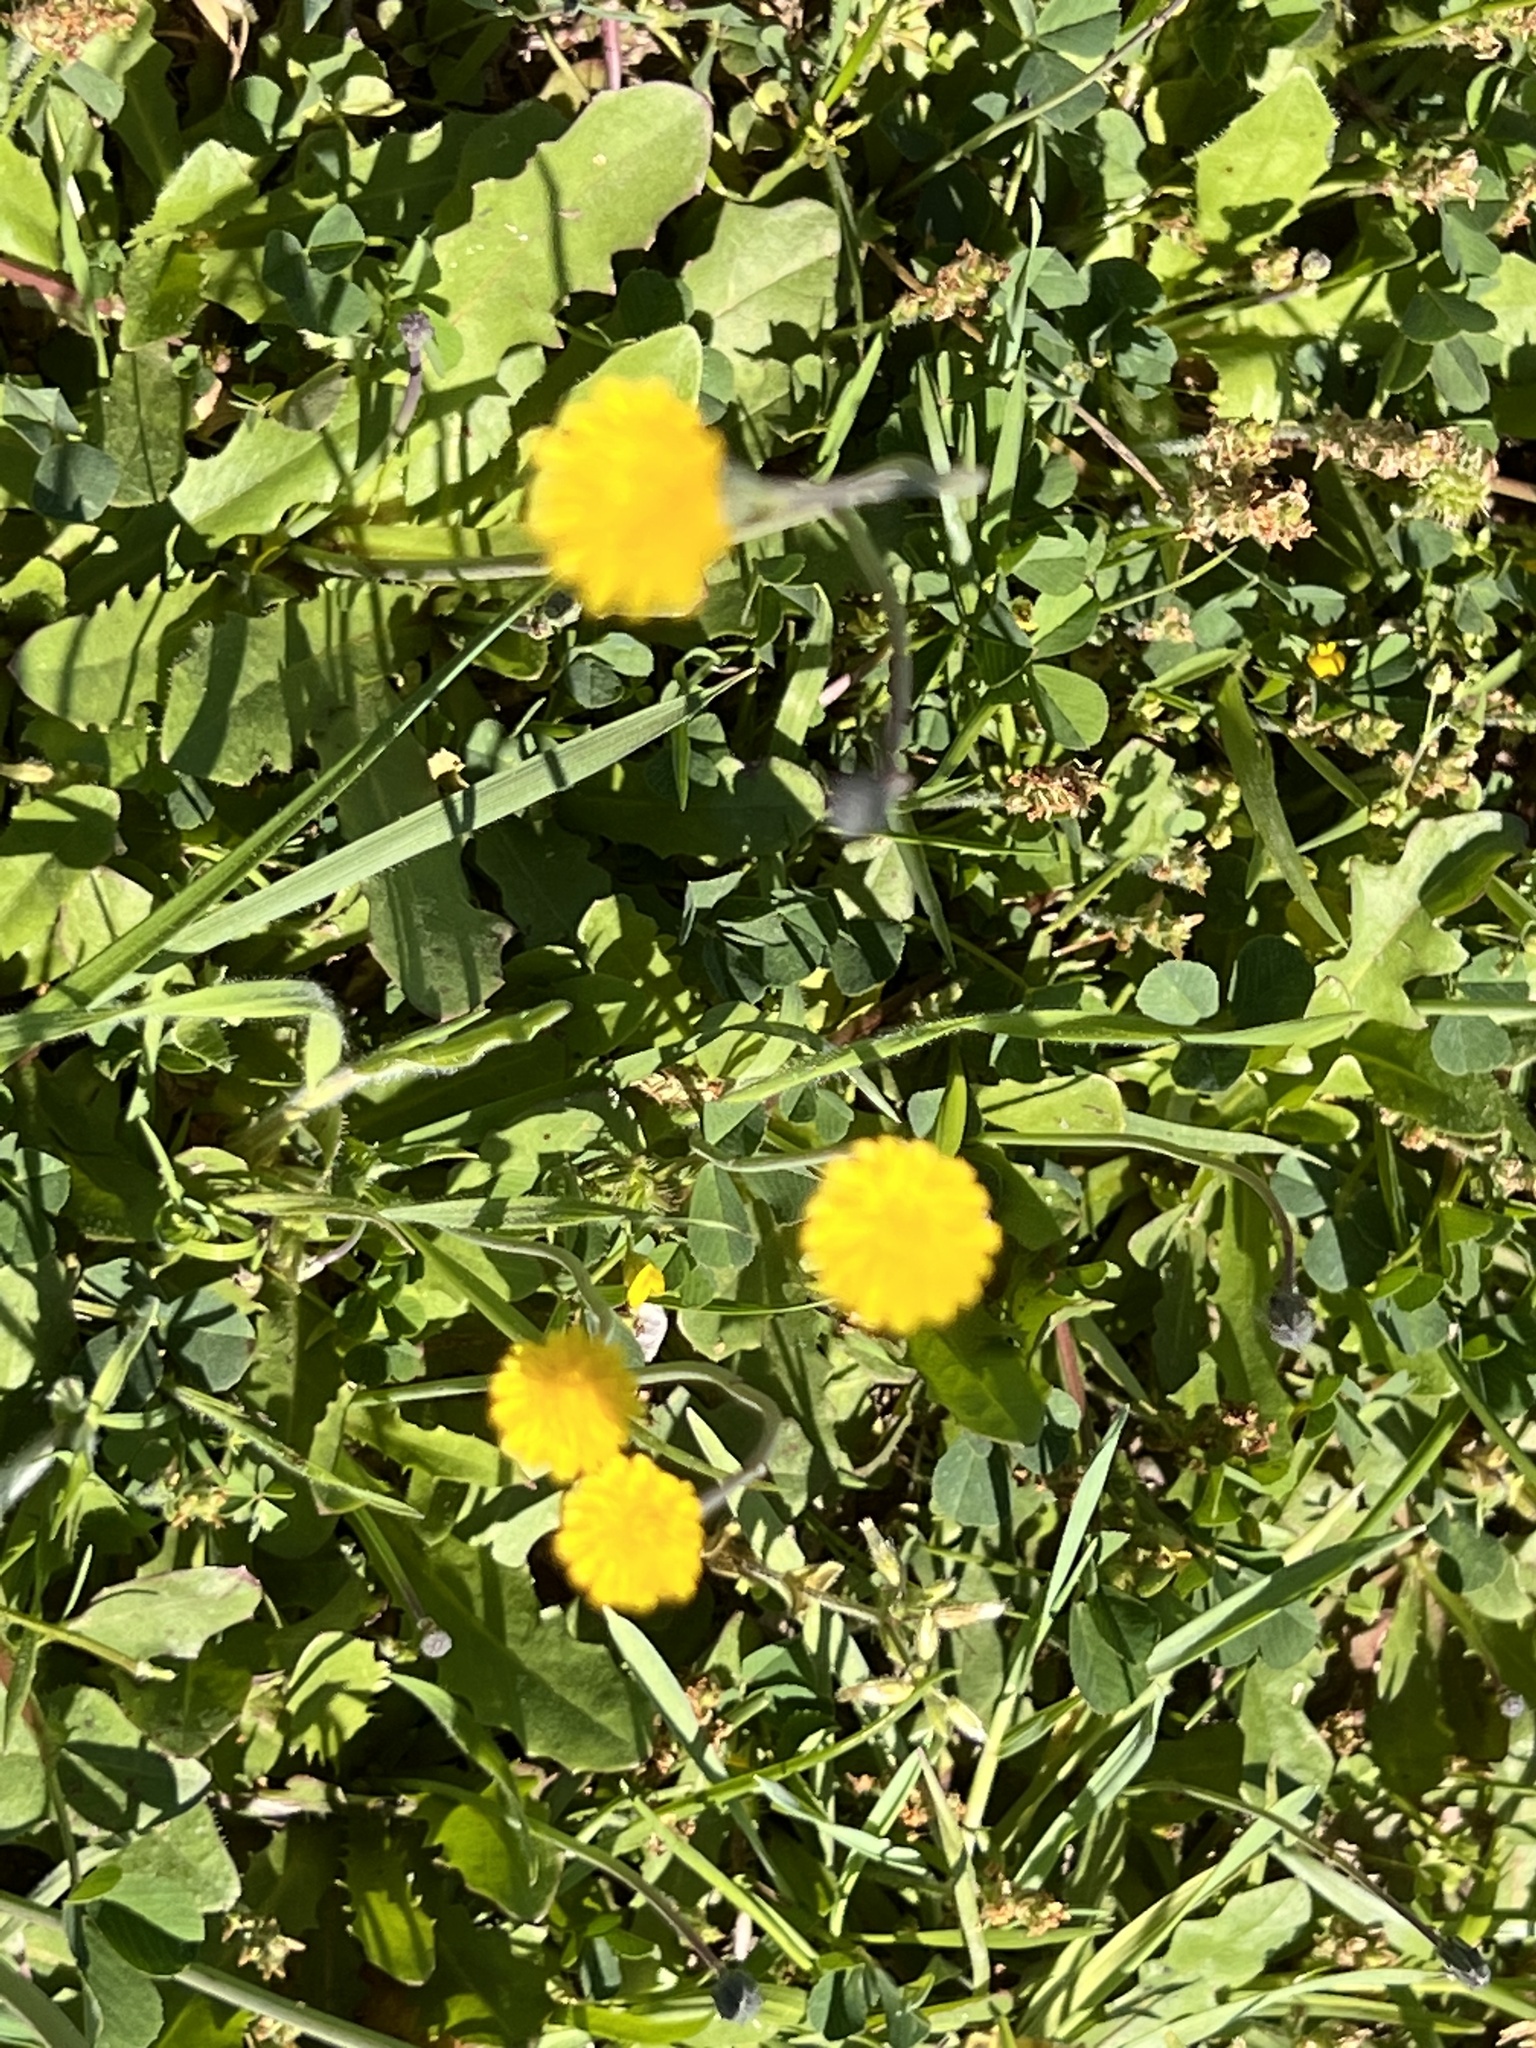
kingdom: Plantae
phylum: Tracheophyta
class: Magnoliopsida
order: Asterales
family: Asteraceae
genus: Hypochaeris
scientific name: Hypochaeris glabra
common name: Smooth catsear
